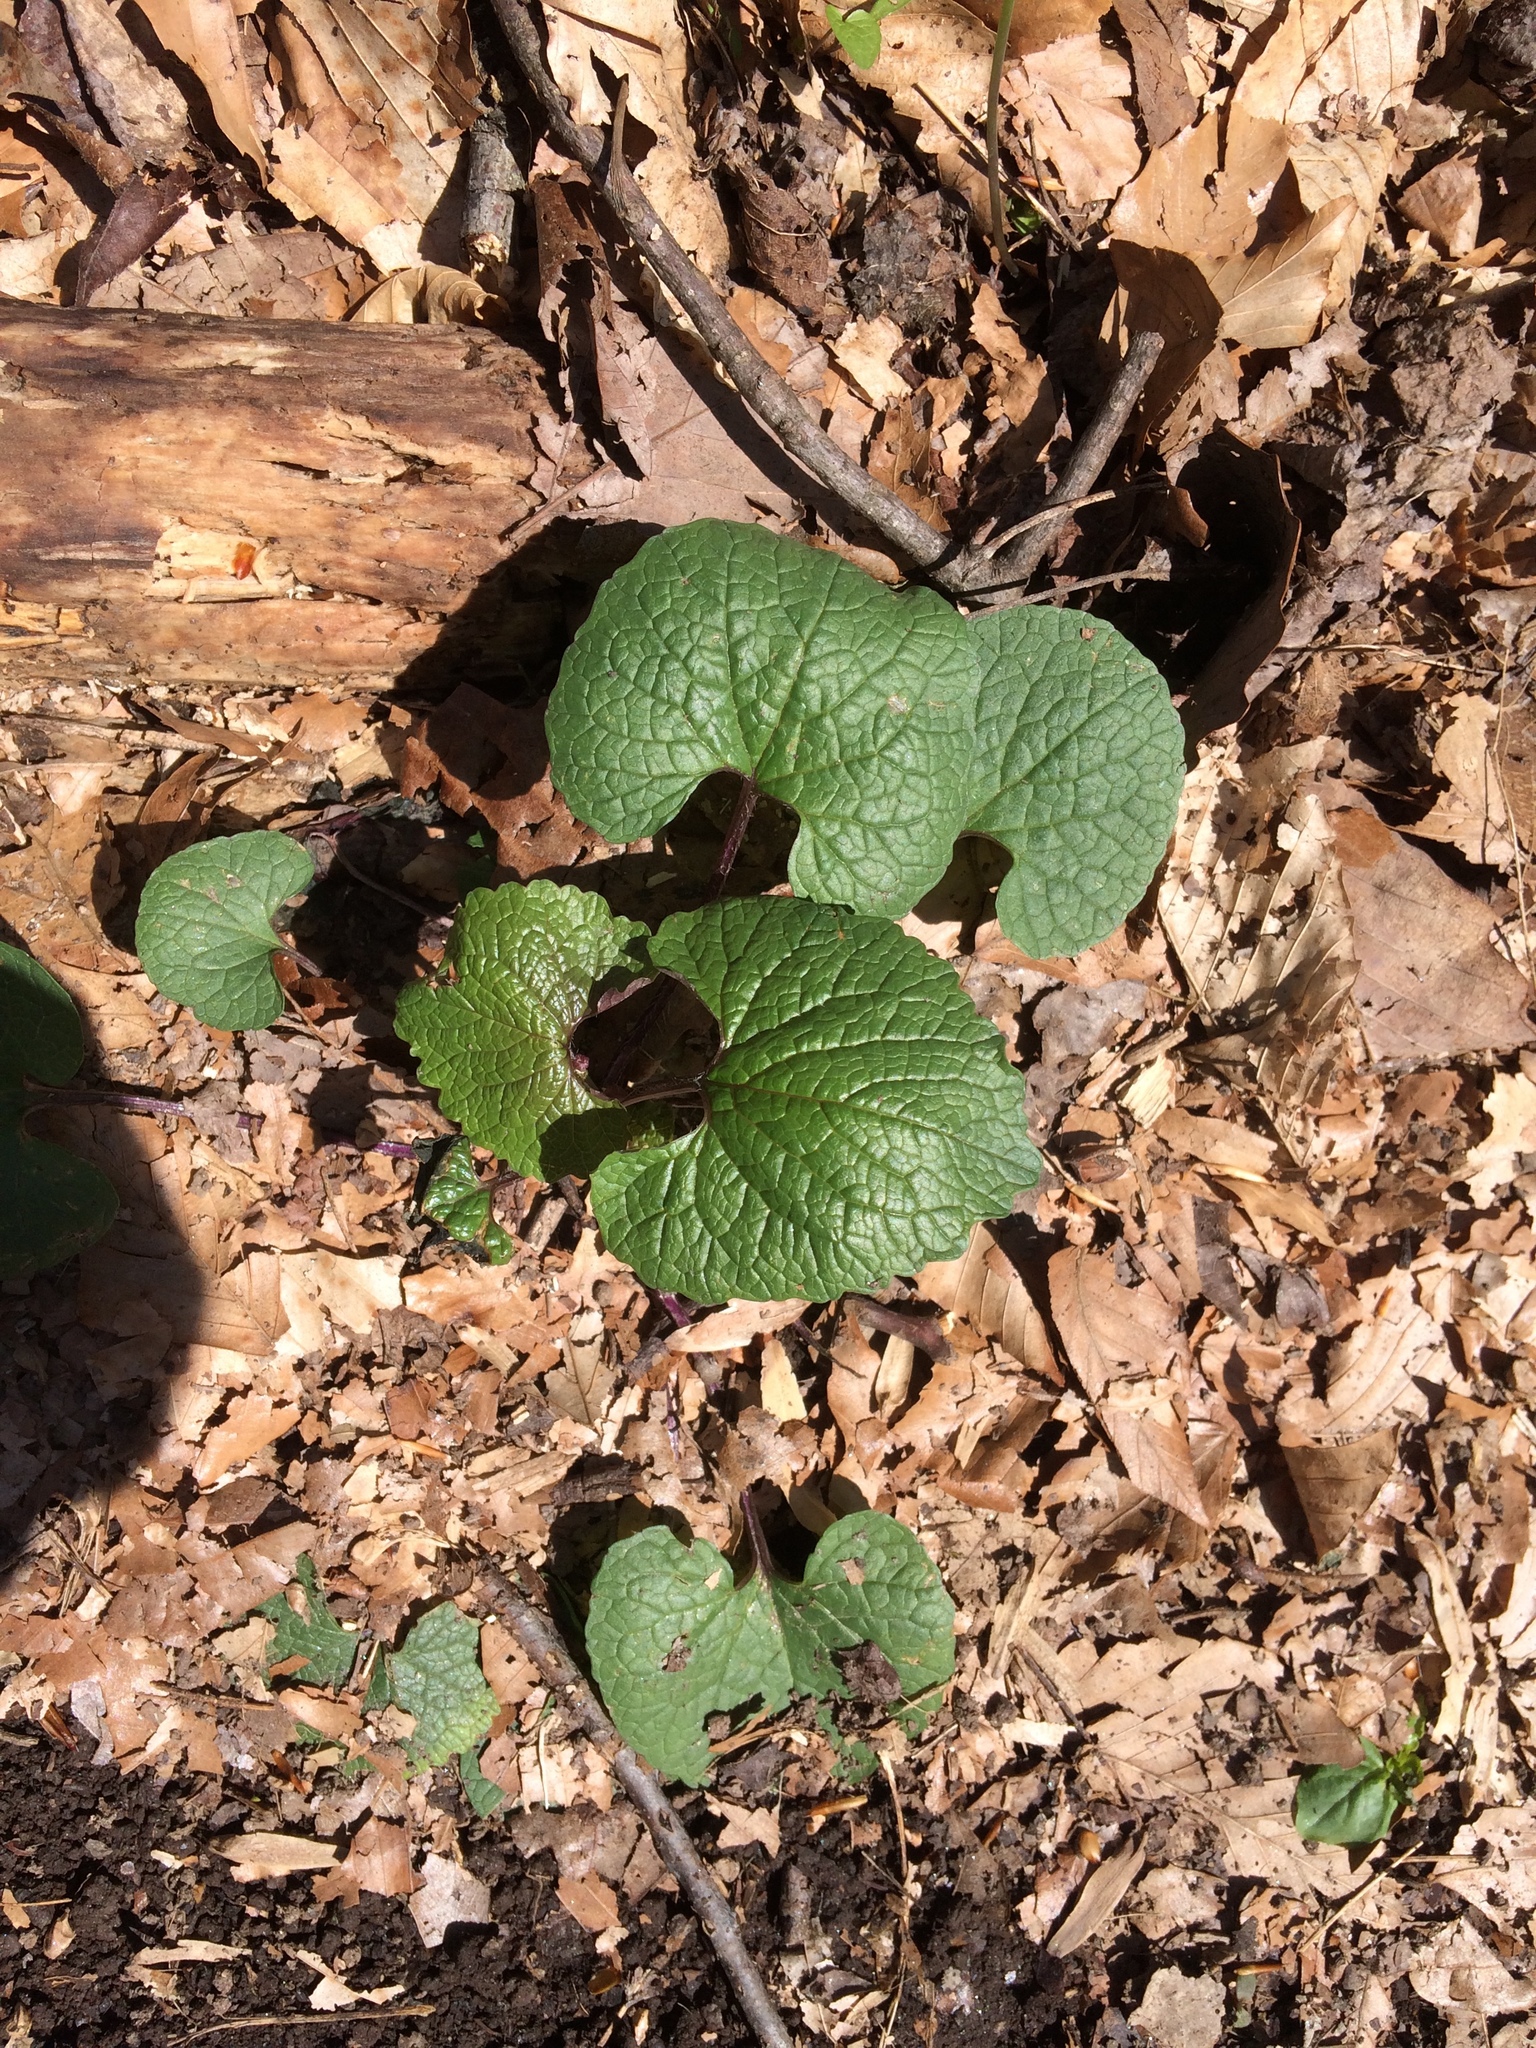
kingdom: Plantae
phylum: Tracheophyta
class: Magnoliopsida
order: Brassicales
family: Brassicaceae
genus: Alliaria
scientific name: Alliaria petiolata
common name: Garlic mustard
